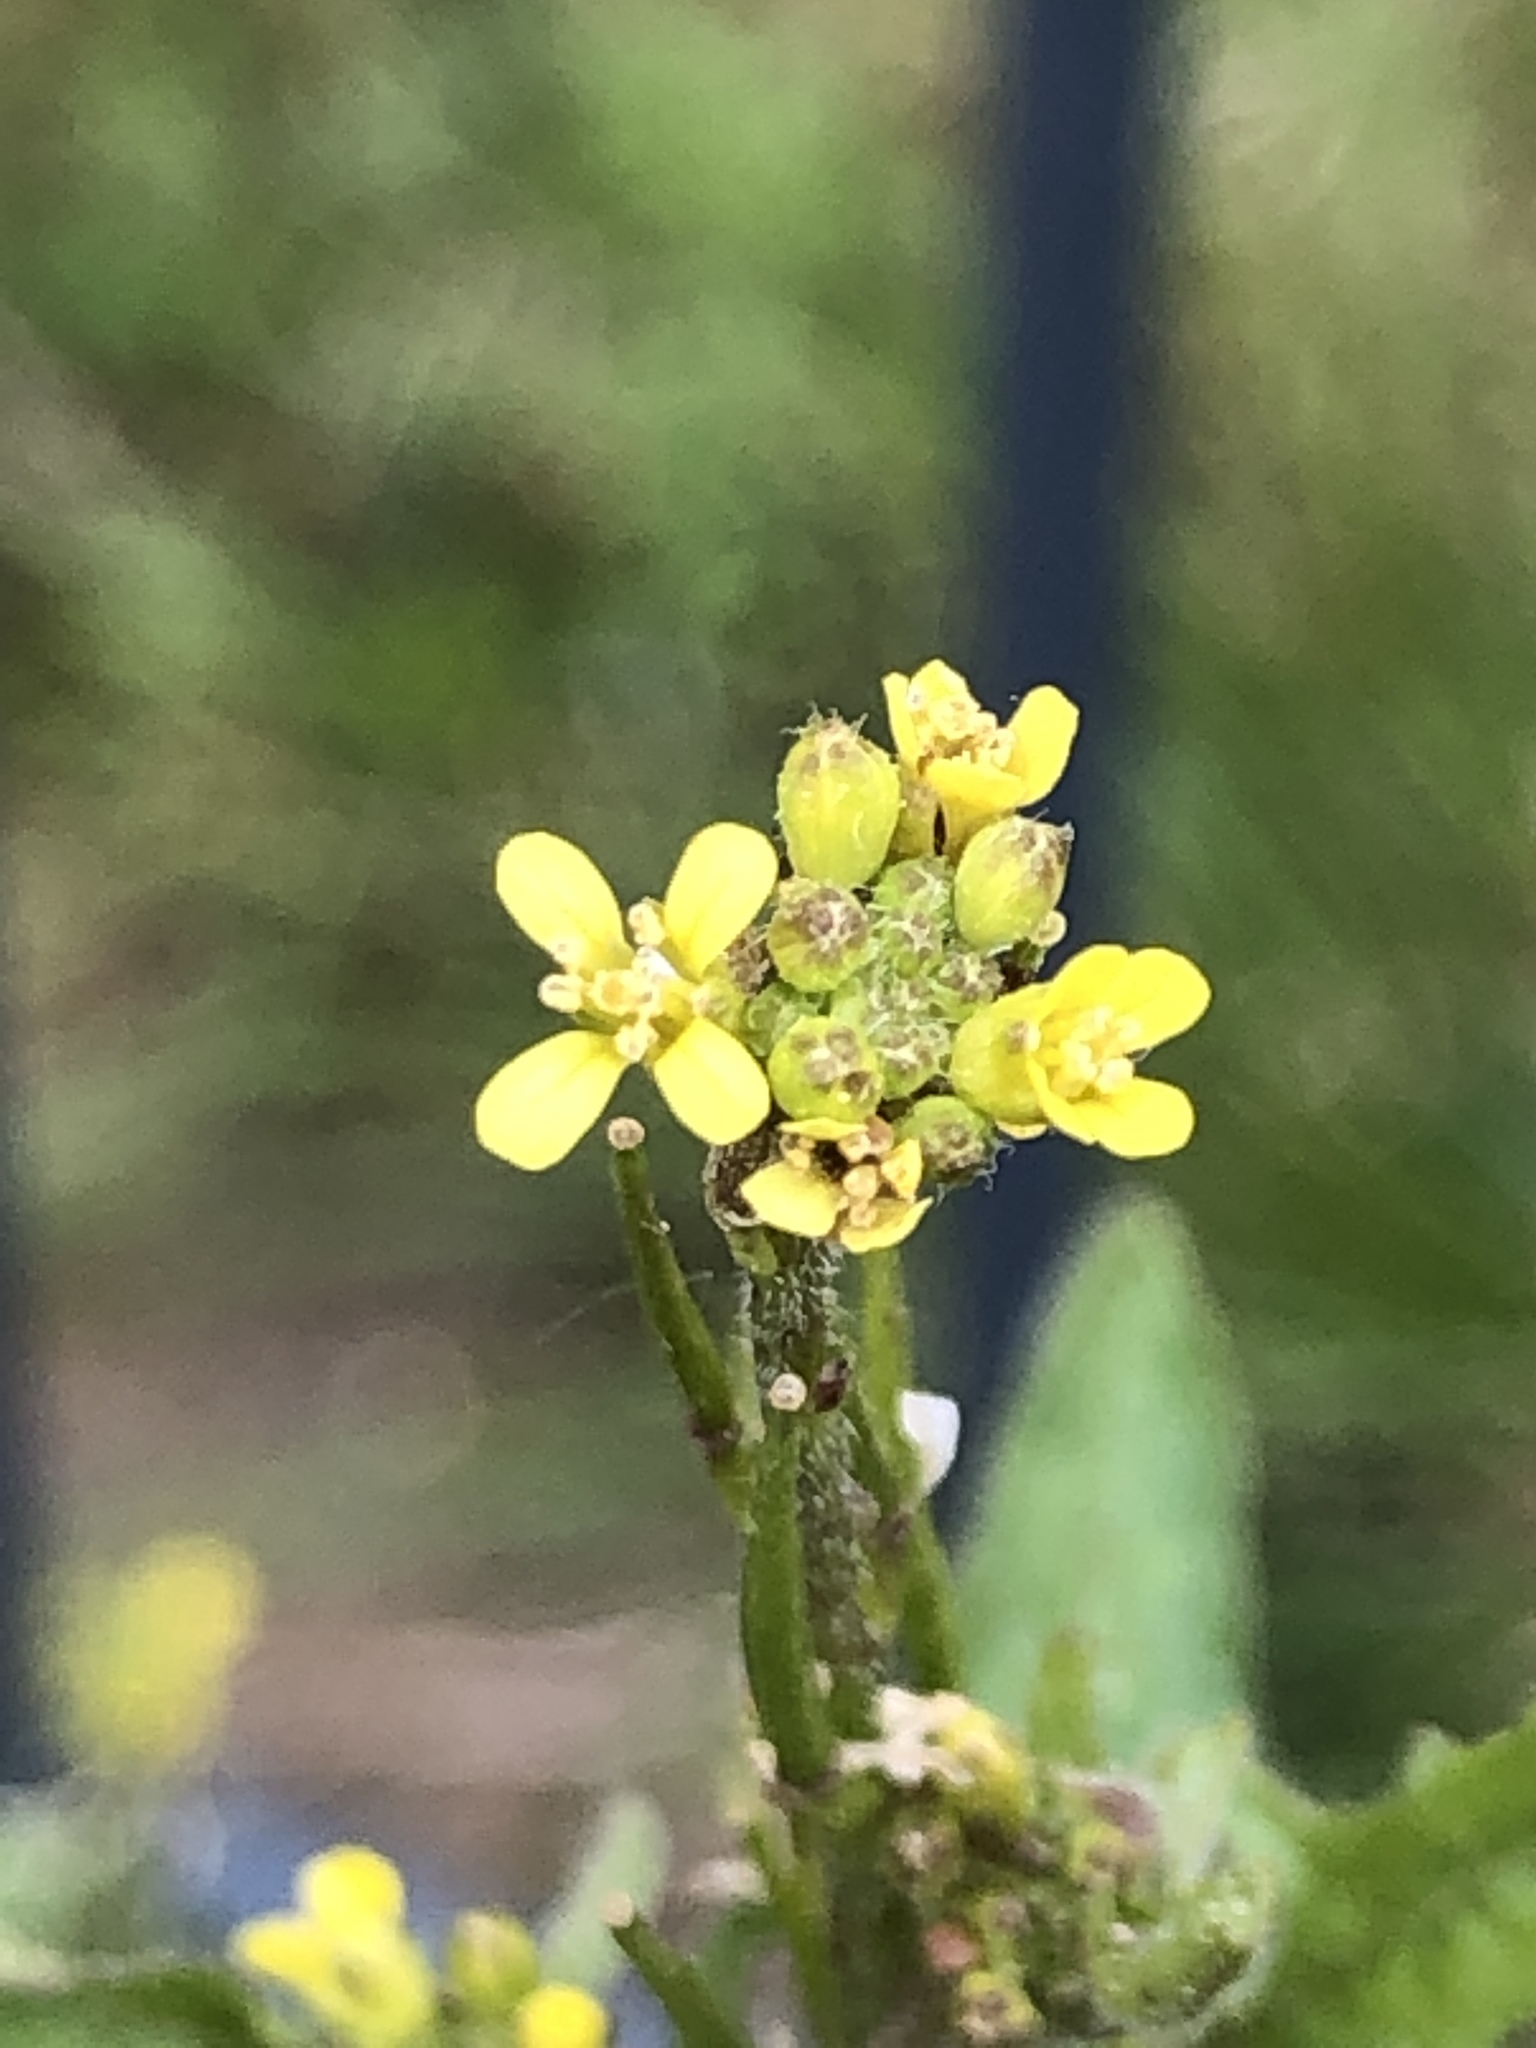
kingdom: Plantae
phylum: Tracheophyta
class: Magnoliopsida
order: Brassicales
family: Brassicaceae
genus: Sisymbrium
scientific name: Sisymbrium officinale
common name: Hedge mustard
